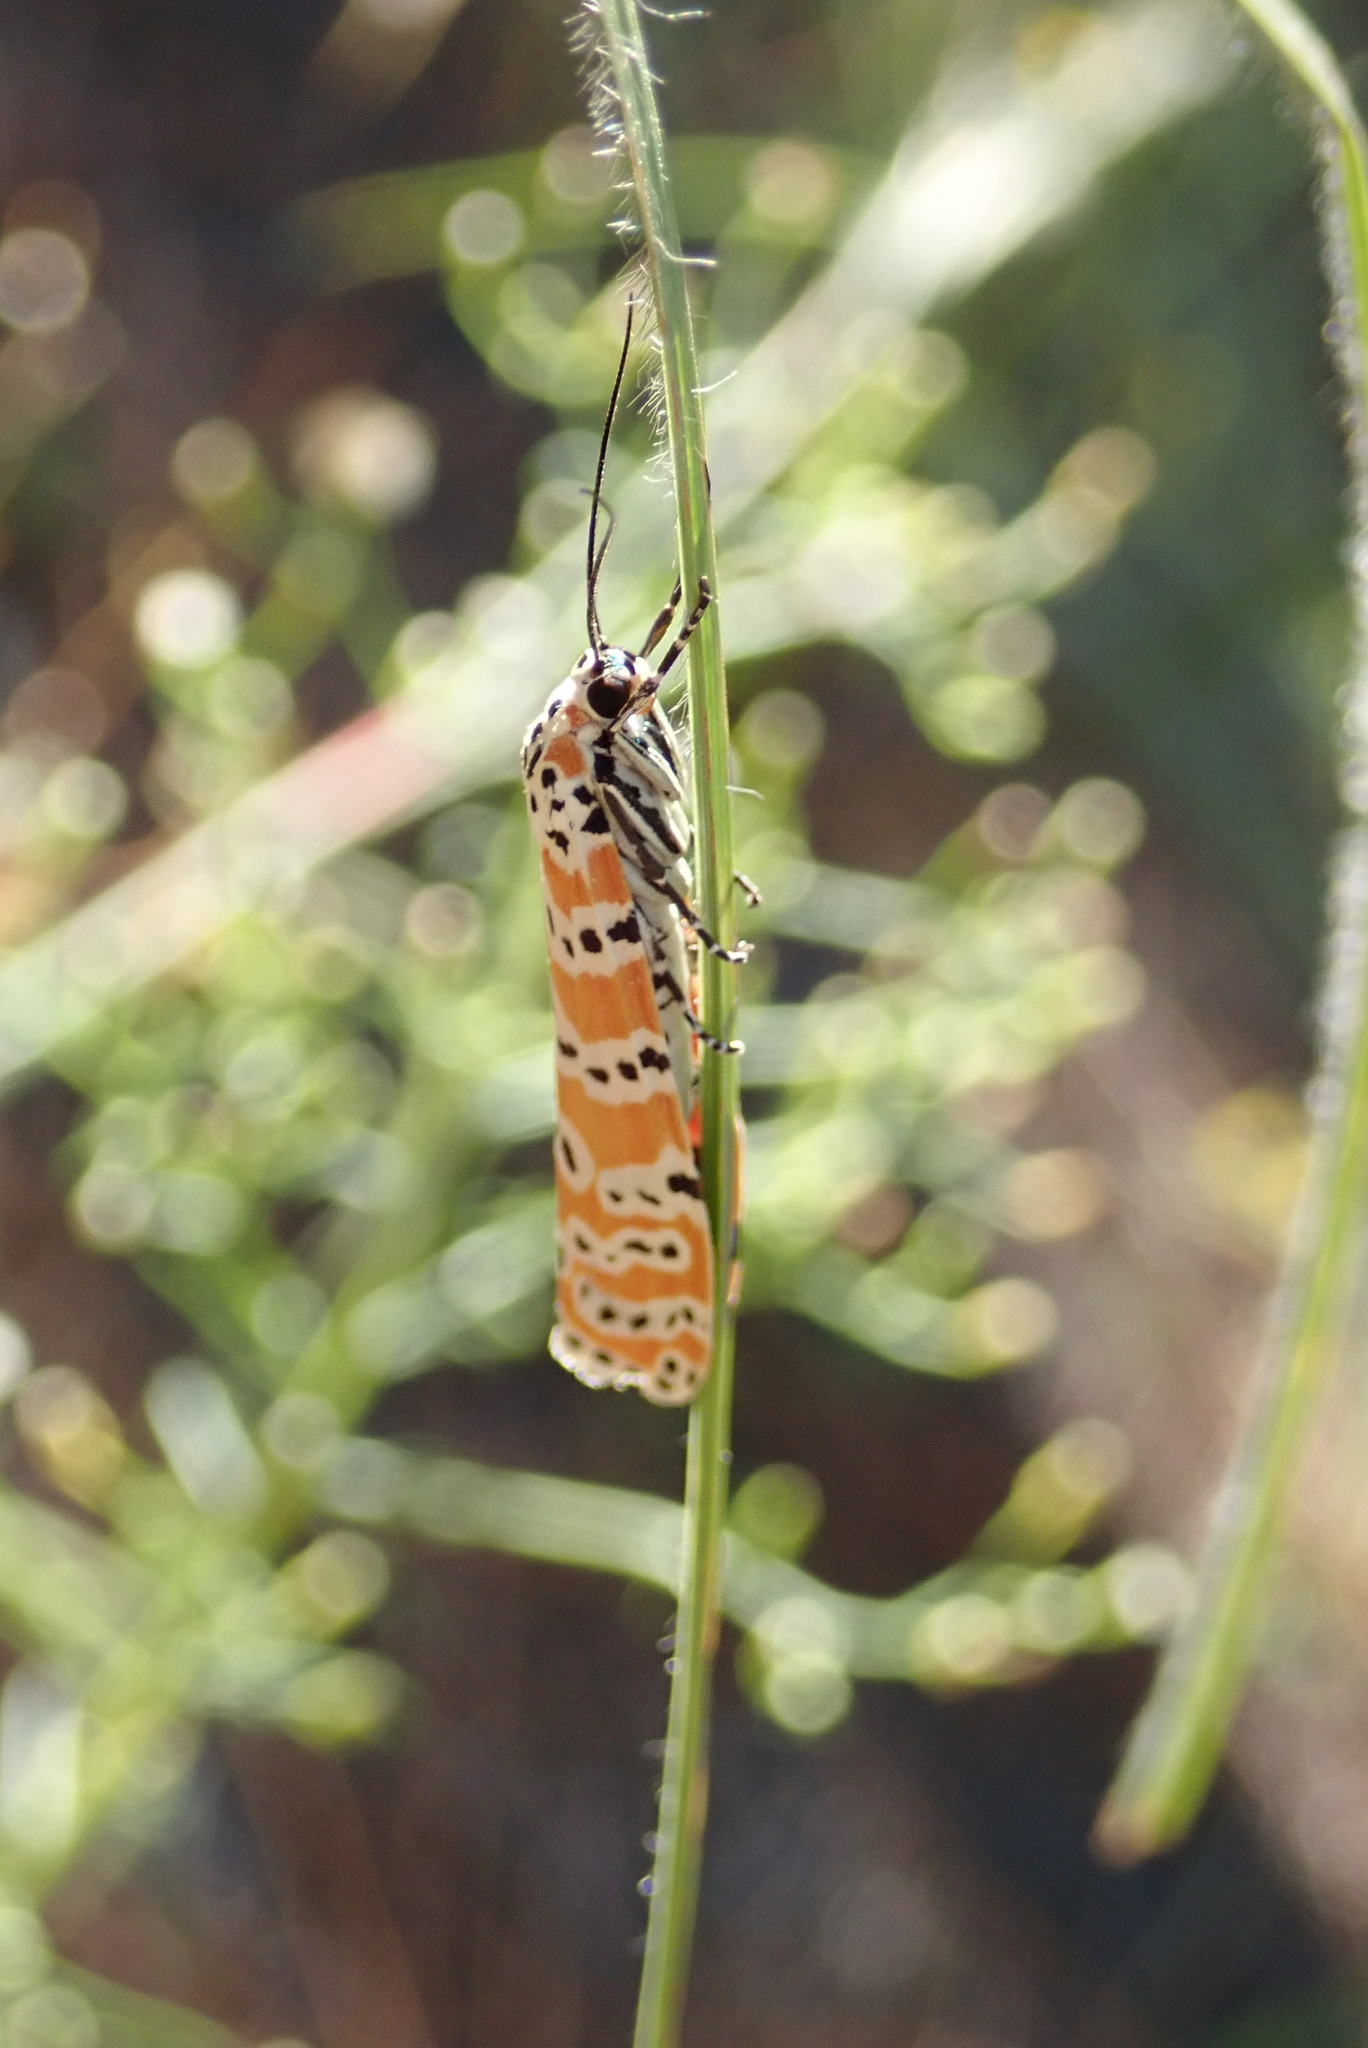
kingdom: Animalia
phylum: Arthropoda
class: Insecta
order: Lepidoptera
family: Erebidae
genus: Utetheisa
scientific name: Utetheisa ornatrix
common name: Beautiful utetheisa
